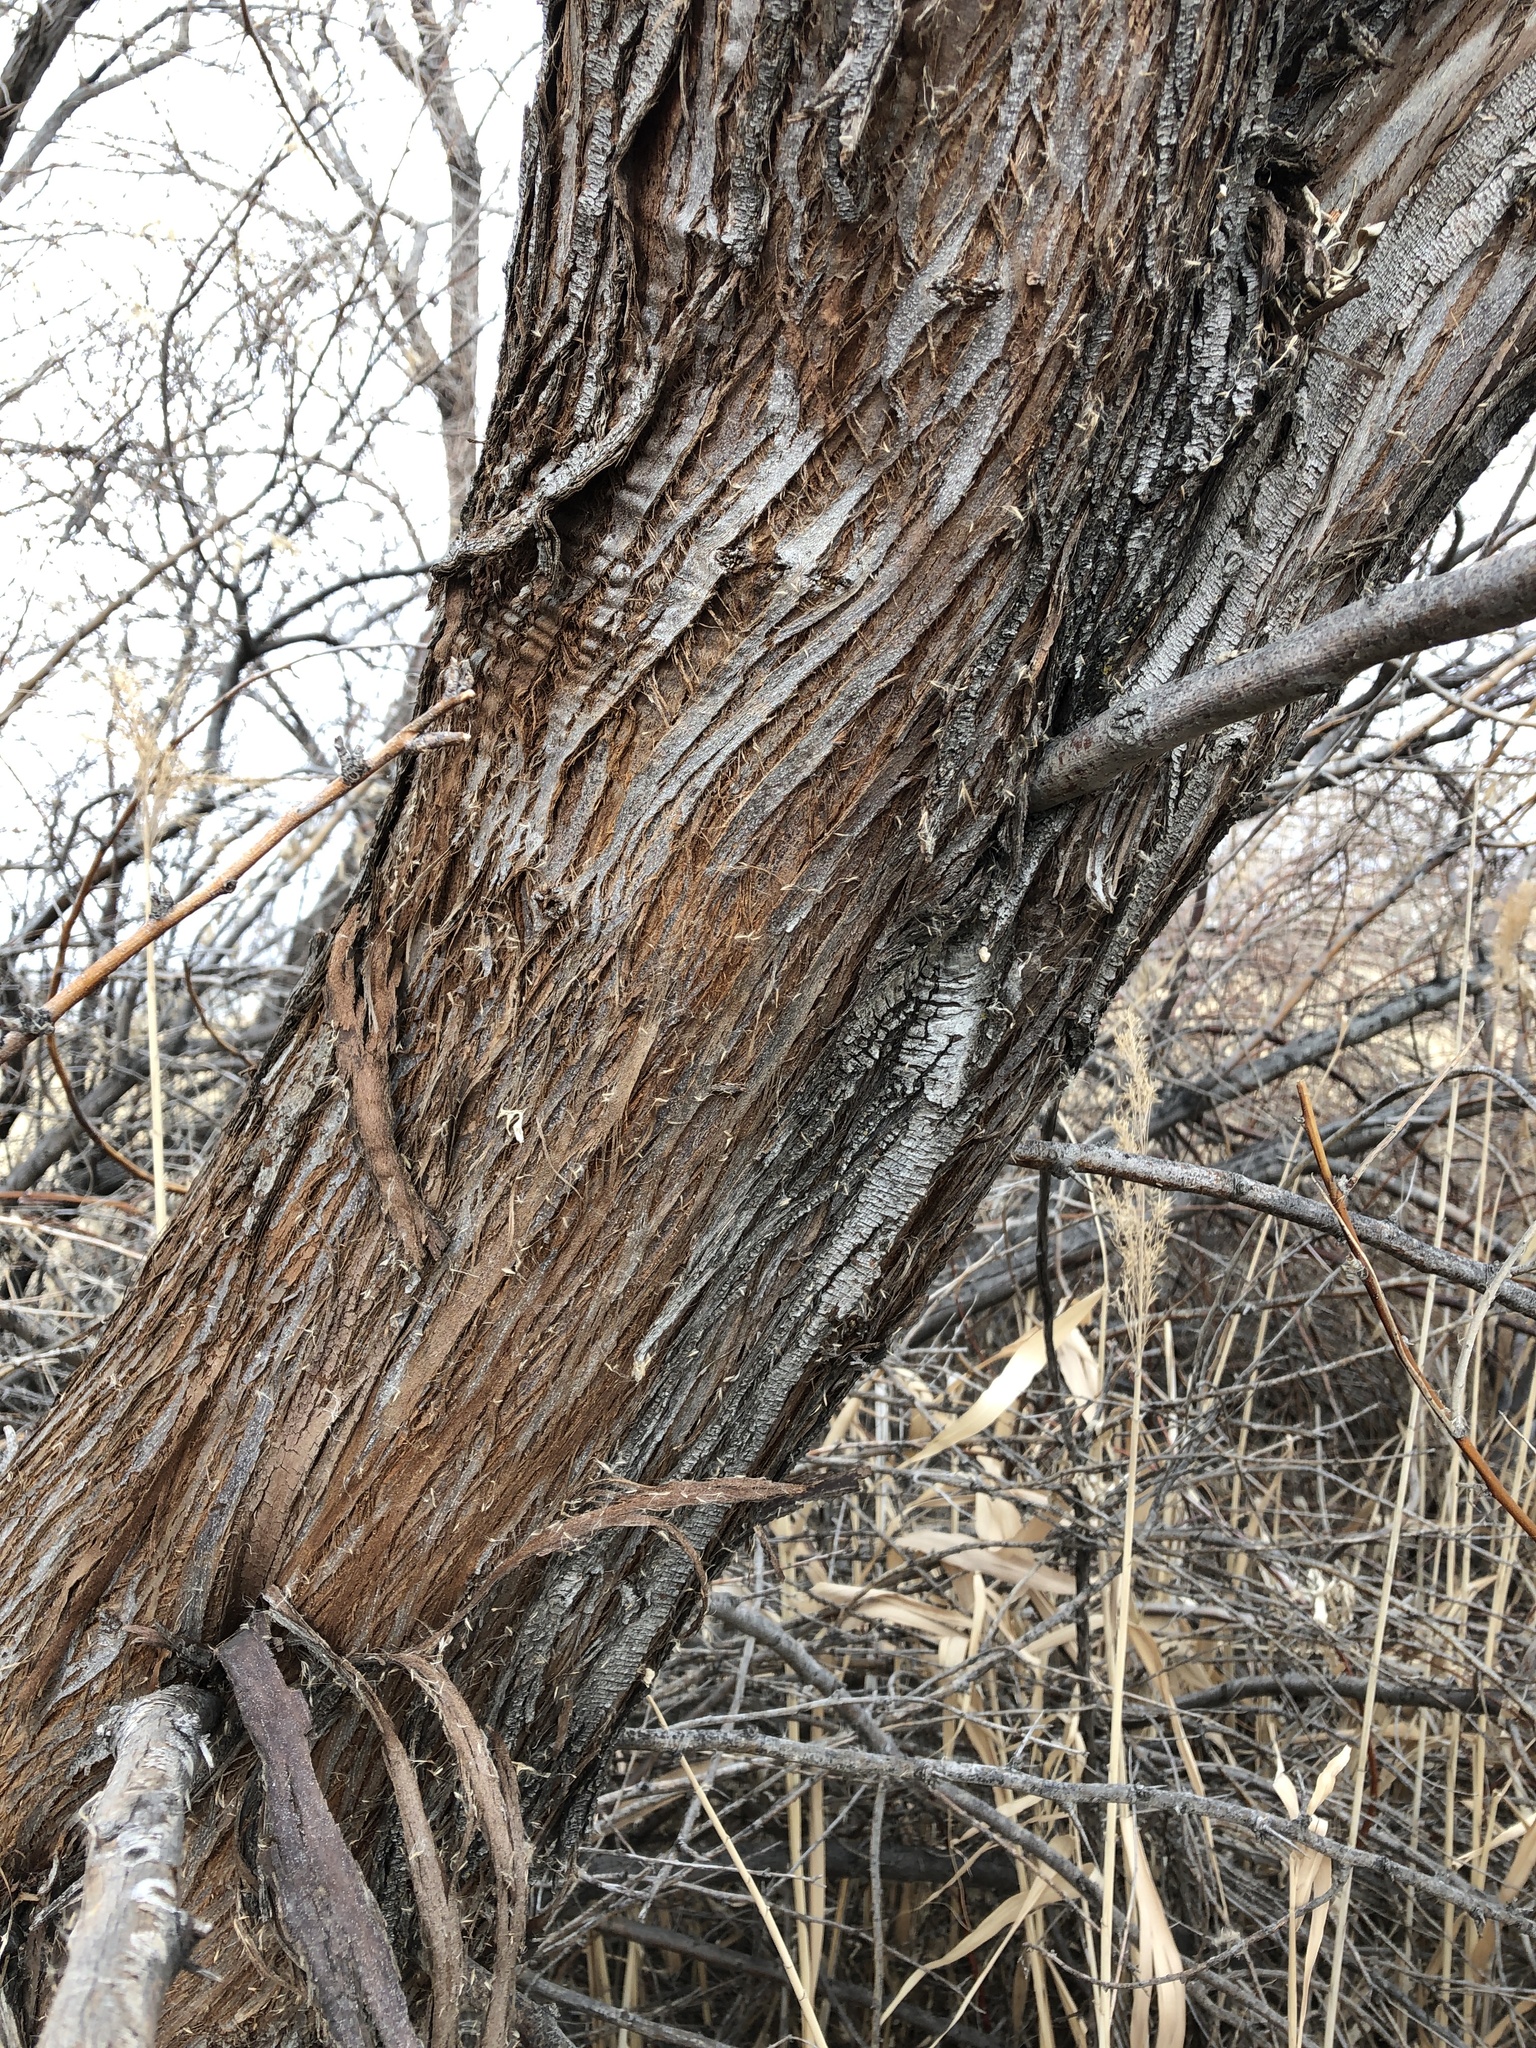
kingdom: Plantae
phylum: Tracheophyta
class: Magnoliopsida
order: Malpighiales
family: Salicaceae
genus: Populus
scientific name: Populus fremontii
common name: Fremont's cottonwood
